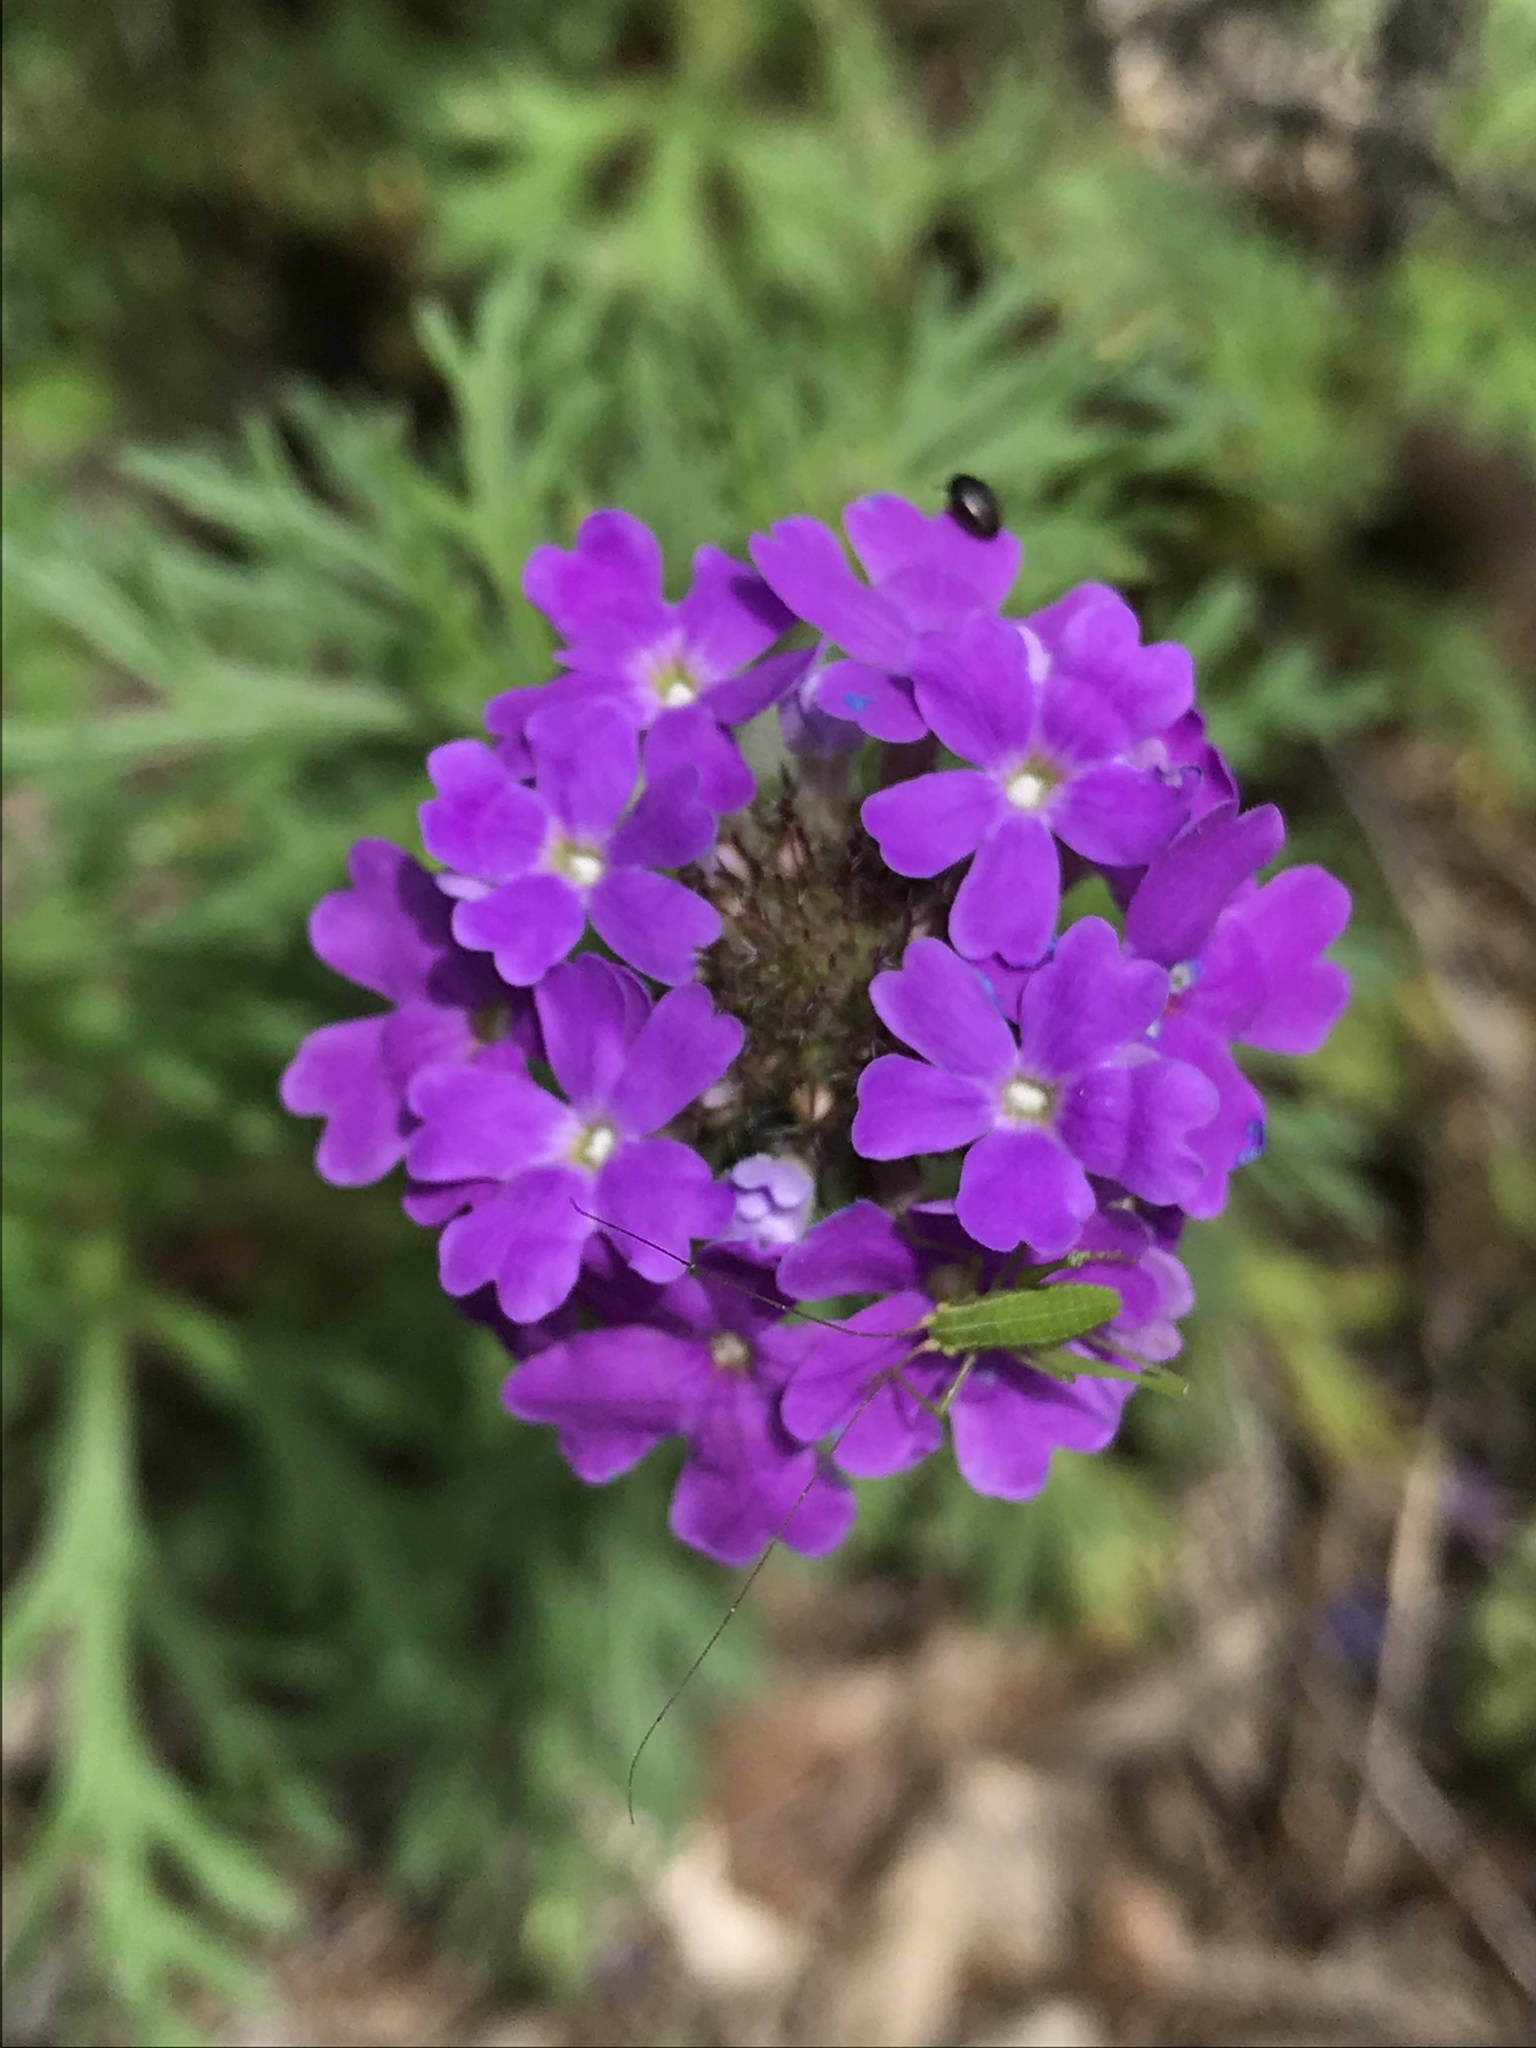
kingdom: Plantae
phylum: Tracheophyta
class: Magnoliopsida
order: Lamiales
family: Verbenaceae
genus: Verbena
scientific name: Verbena bipinnatifida
